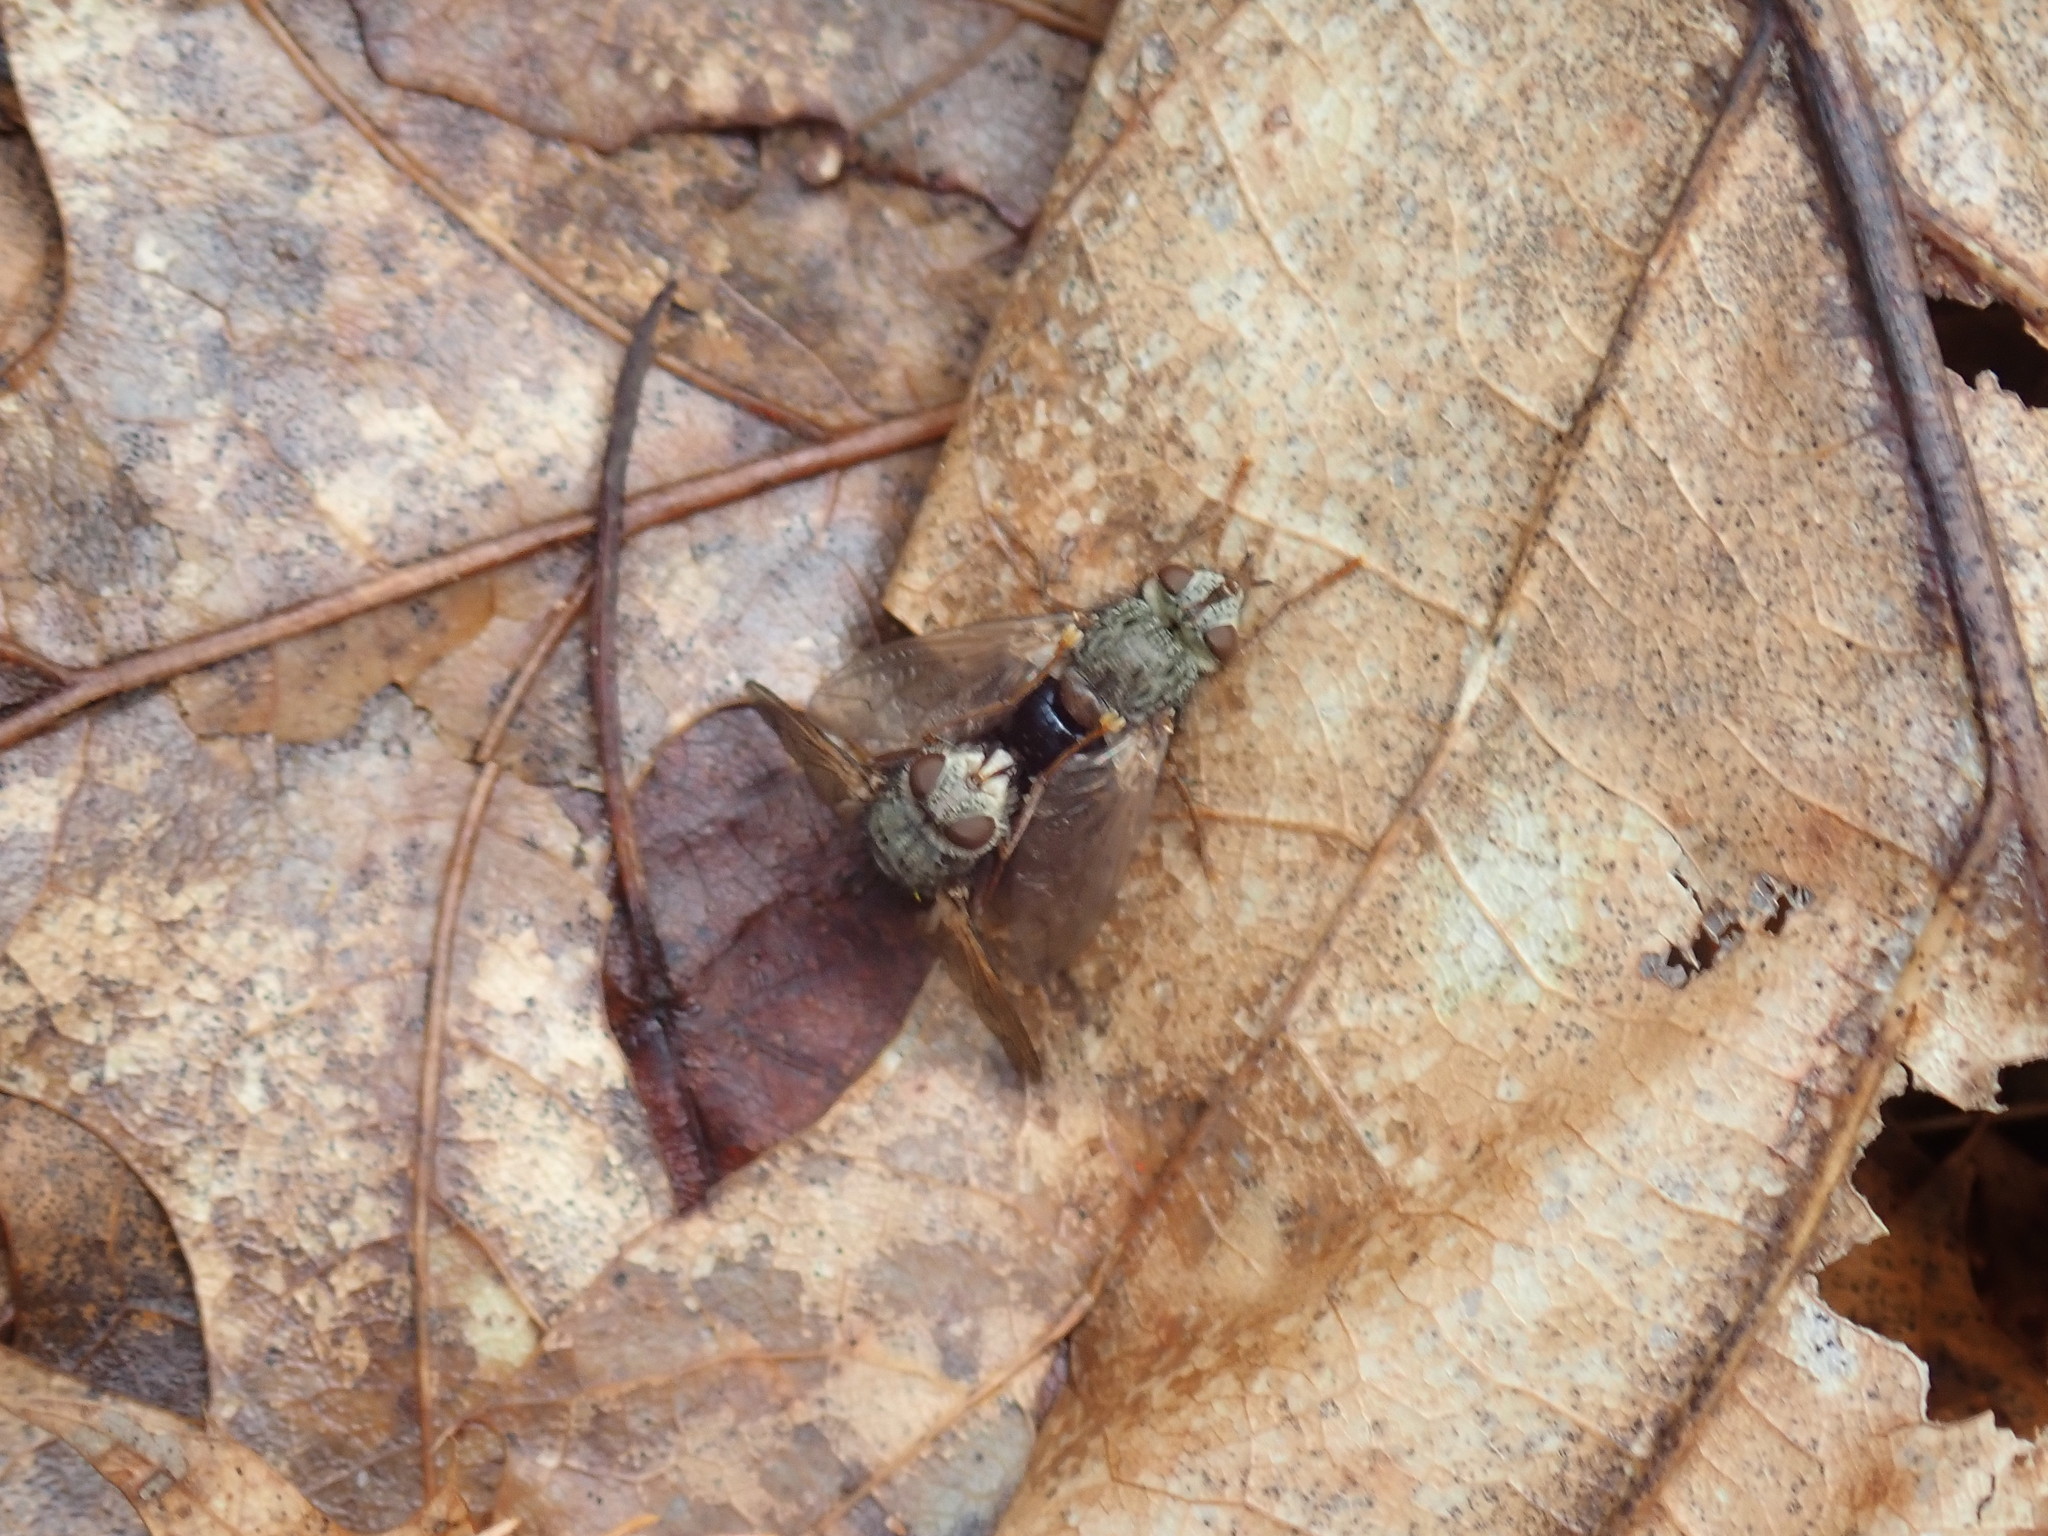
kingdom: Animalia
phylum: Arthropoda
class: Insecta
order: Diptera
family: Tachinidae
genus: Epalpus
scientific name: Epalpus signifer
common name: Early tachinid fly
